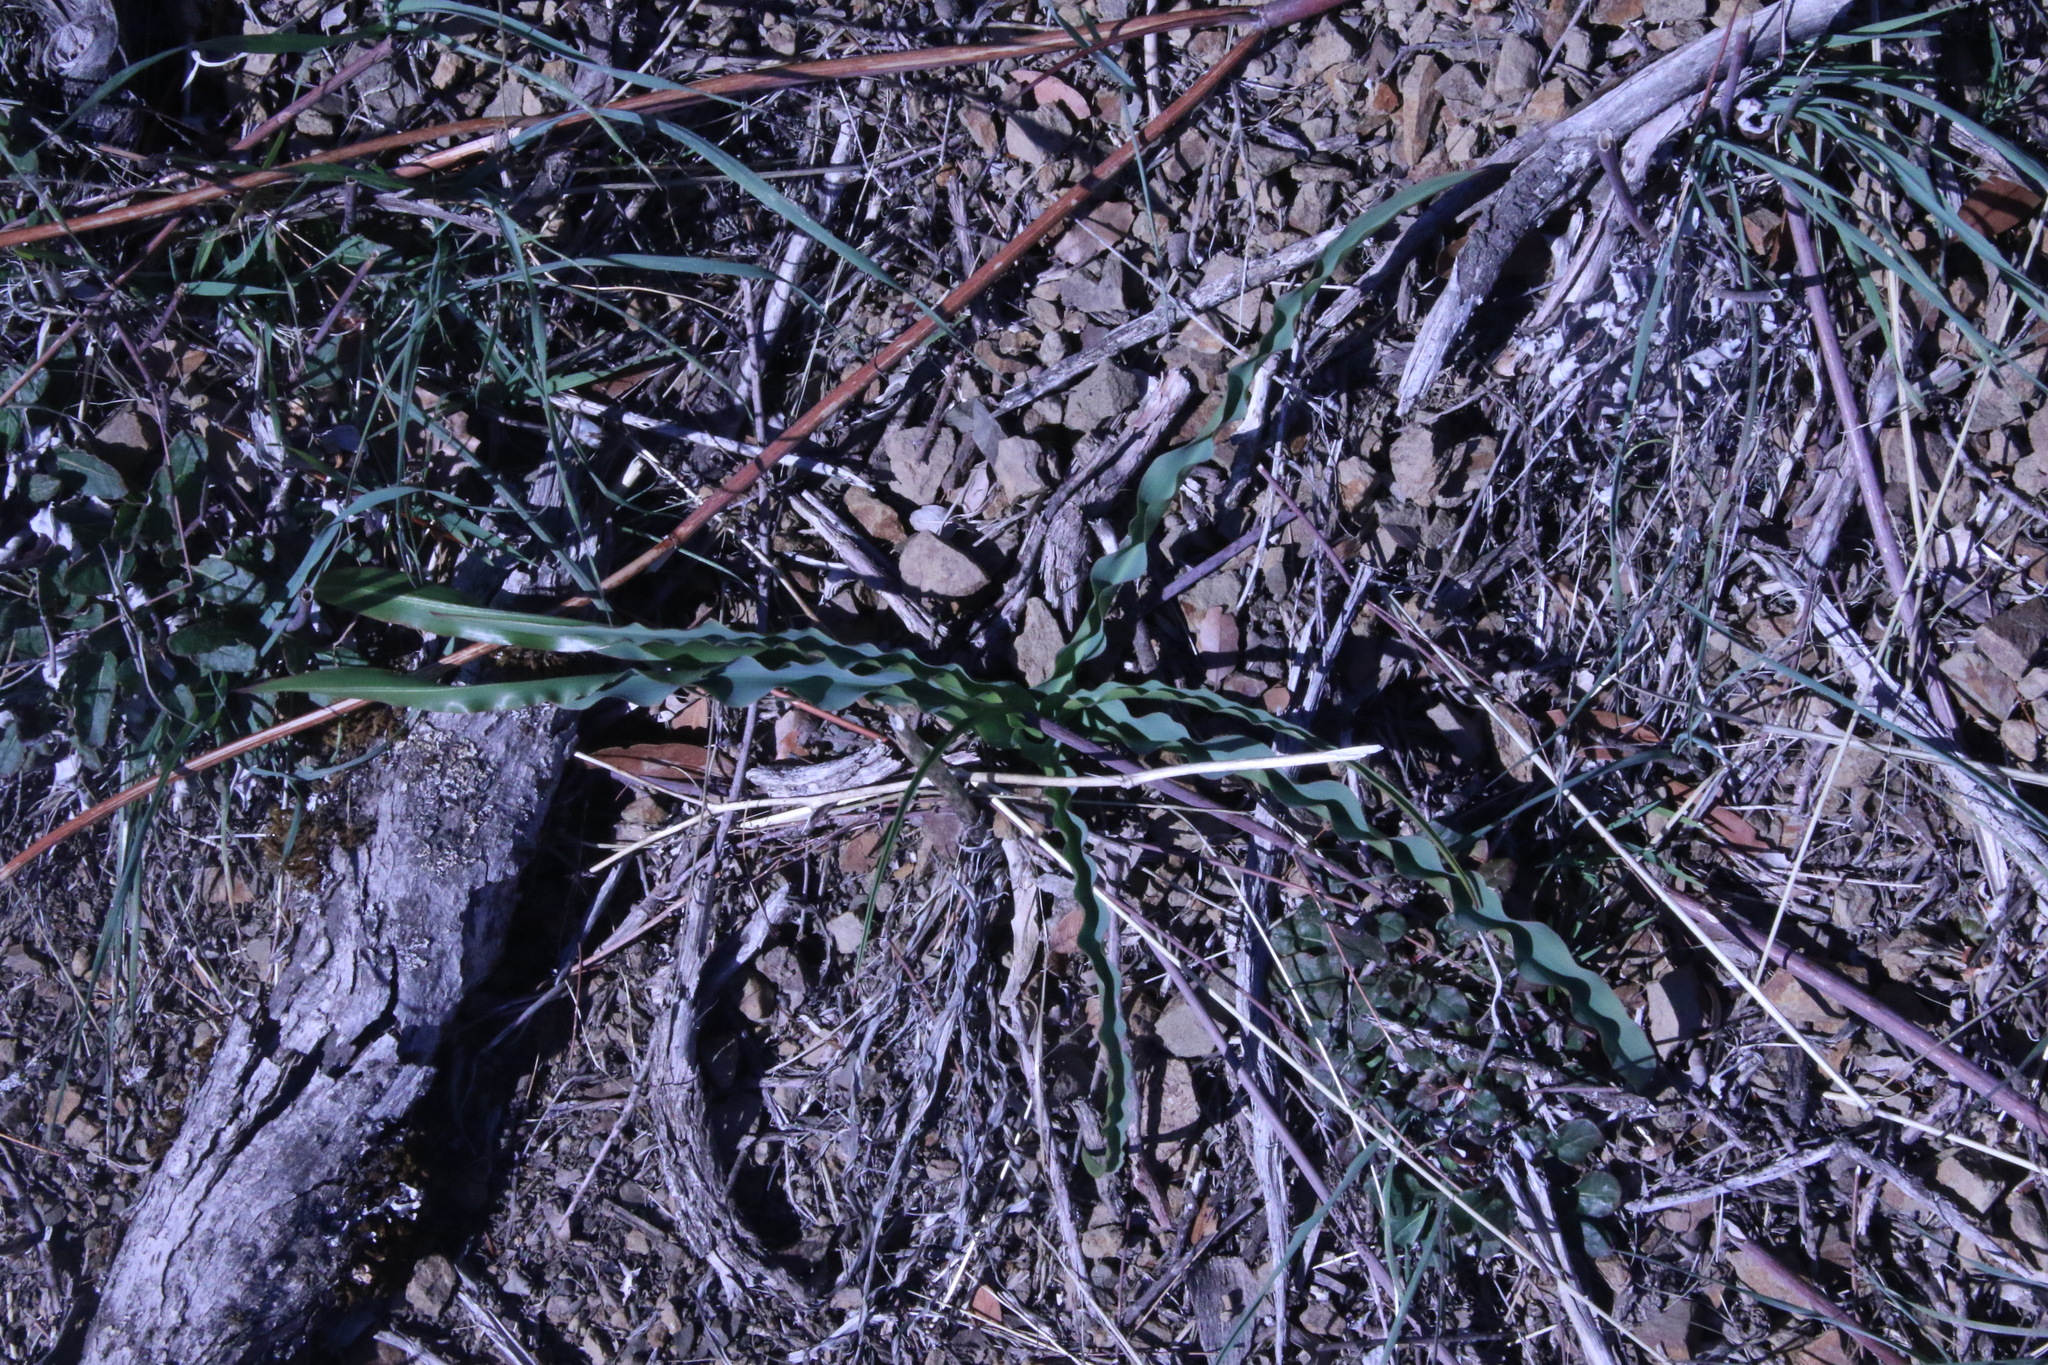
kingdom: Plantae
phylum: Tracheophyta
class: Liliopsida
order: Asparagales
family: Asparagaceae
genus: Chlorogalum
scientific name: Chlorogalum pomeridianum
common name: Amole
